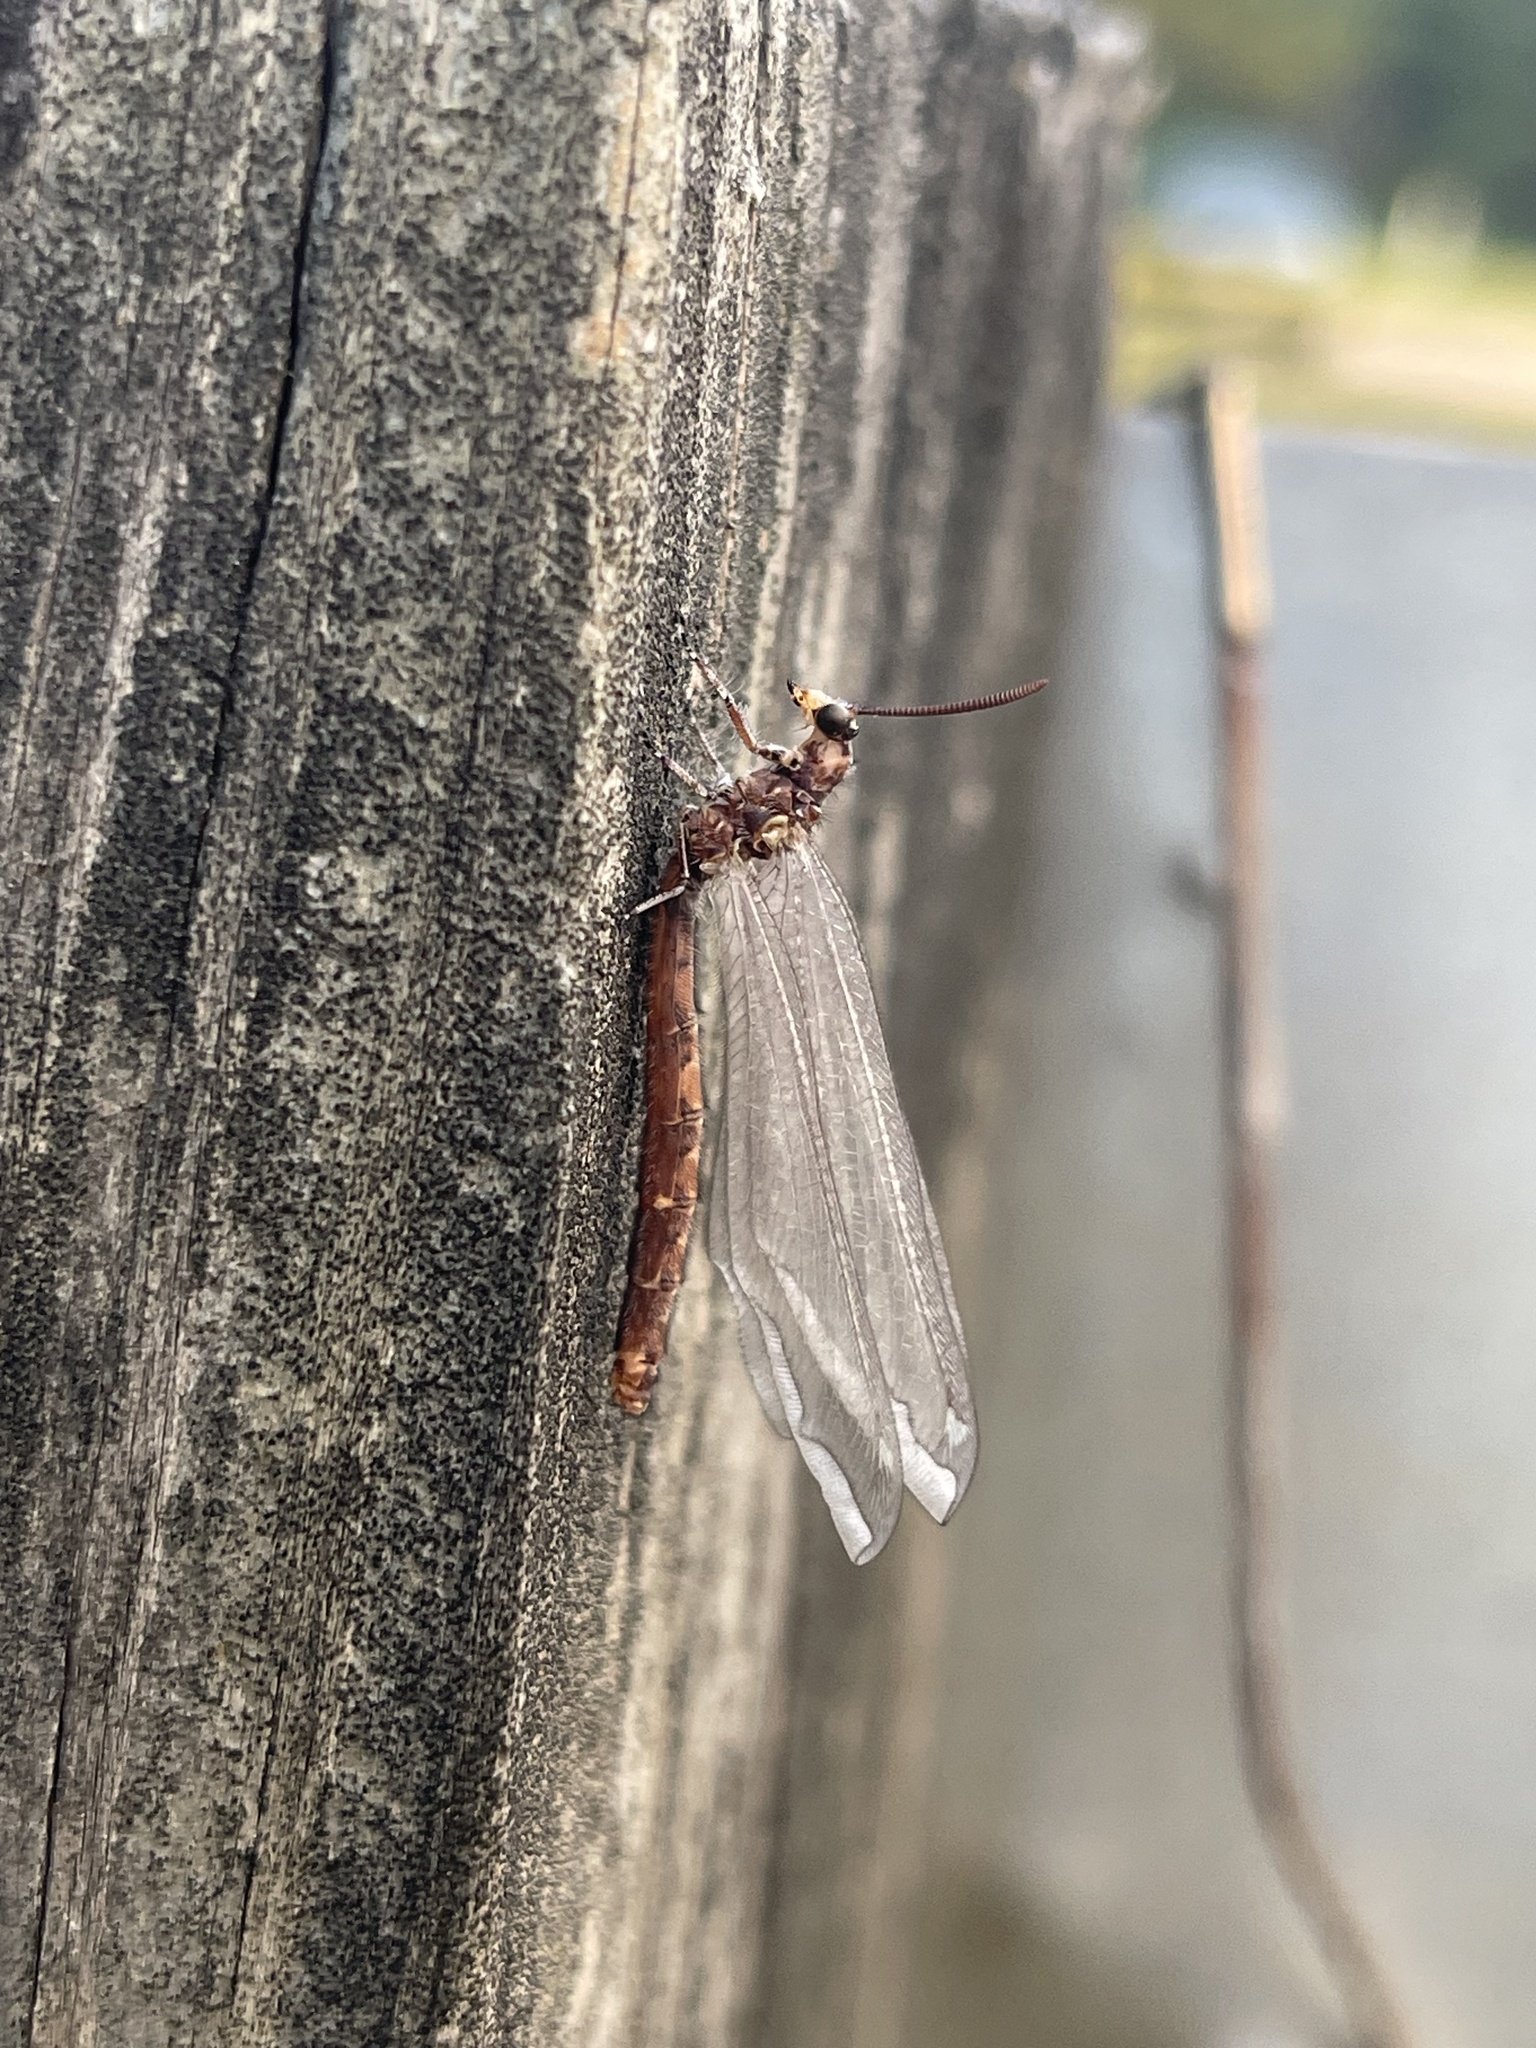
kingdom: Animalia
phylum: Arthropoda
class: Insecta
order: Neuroptera
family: Myrmeleontidae
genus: Myrmeleon
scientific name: Myrmeleon immaculatus
